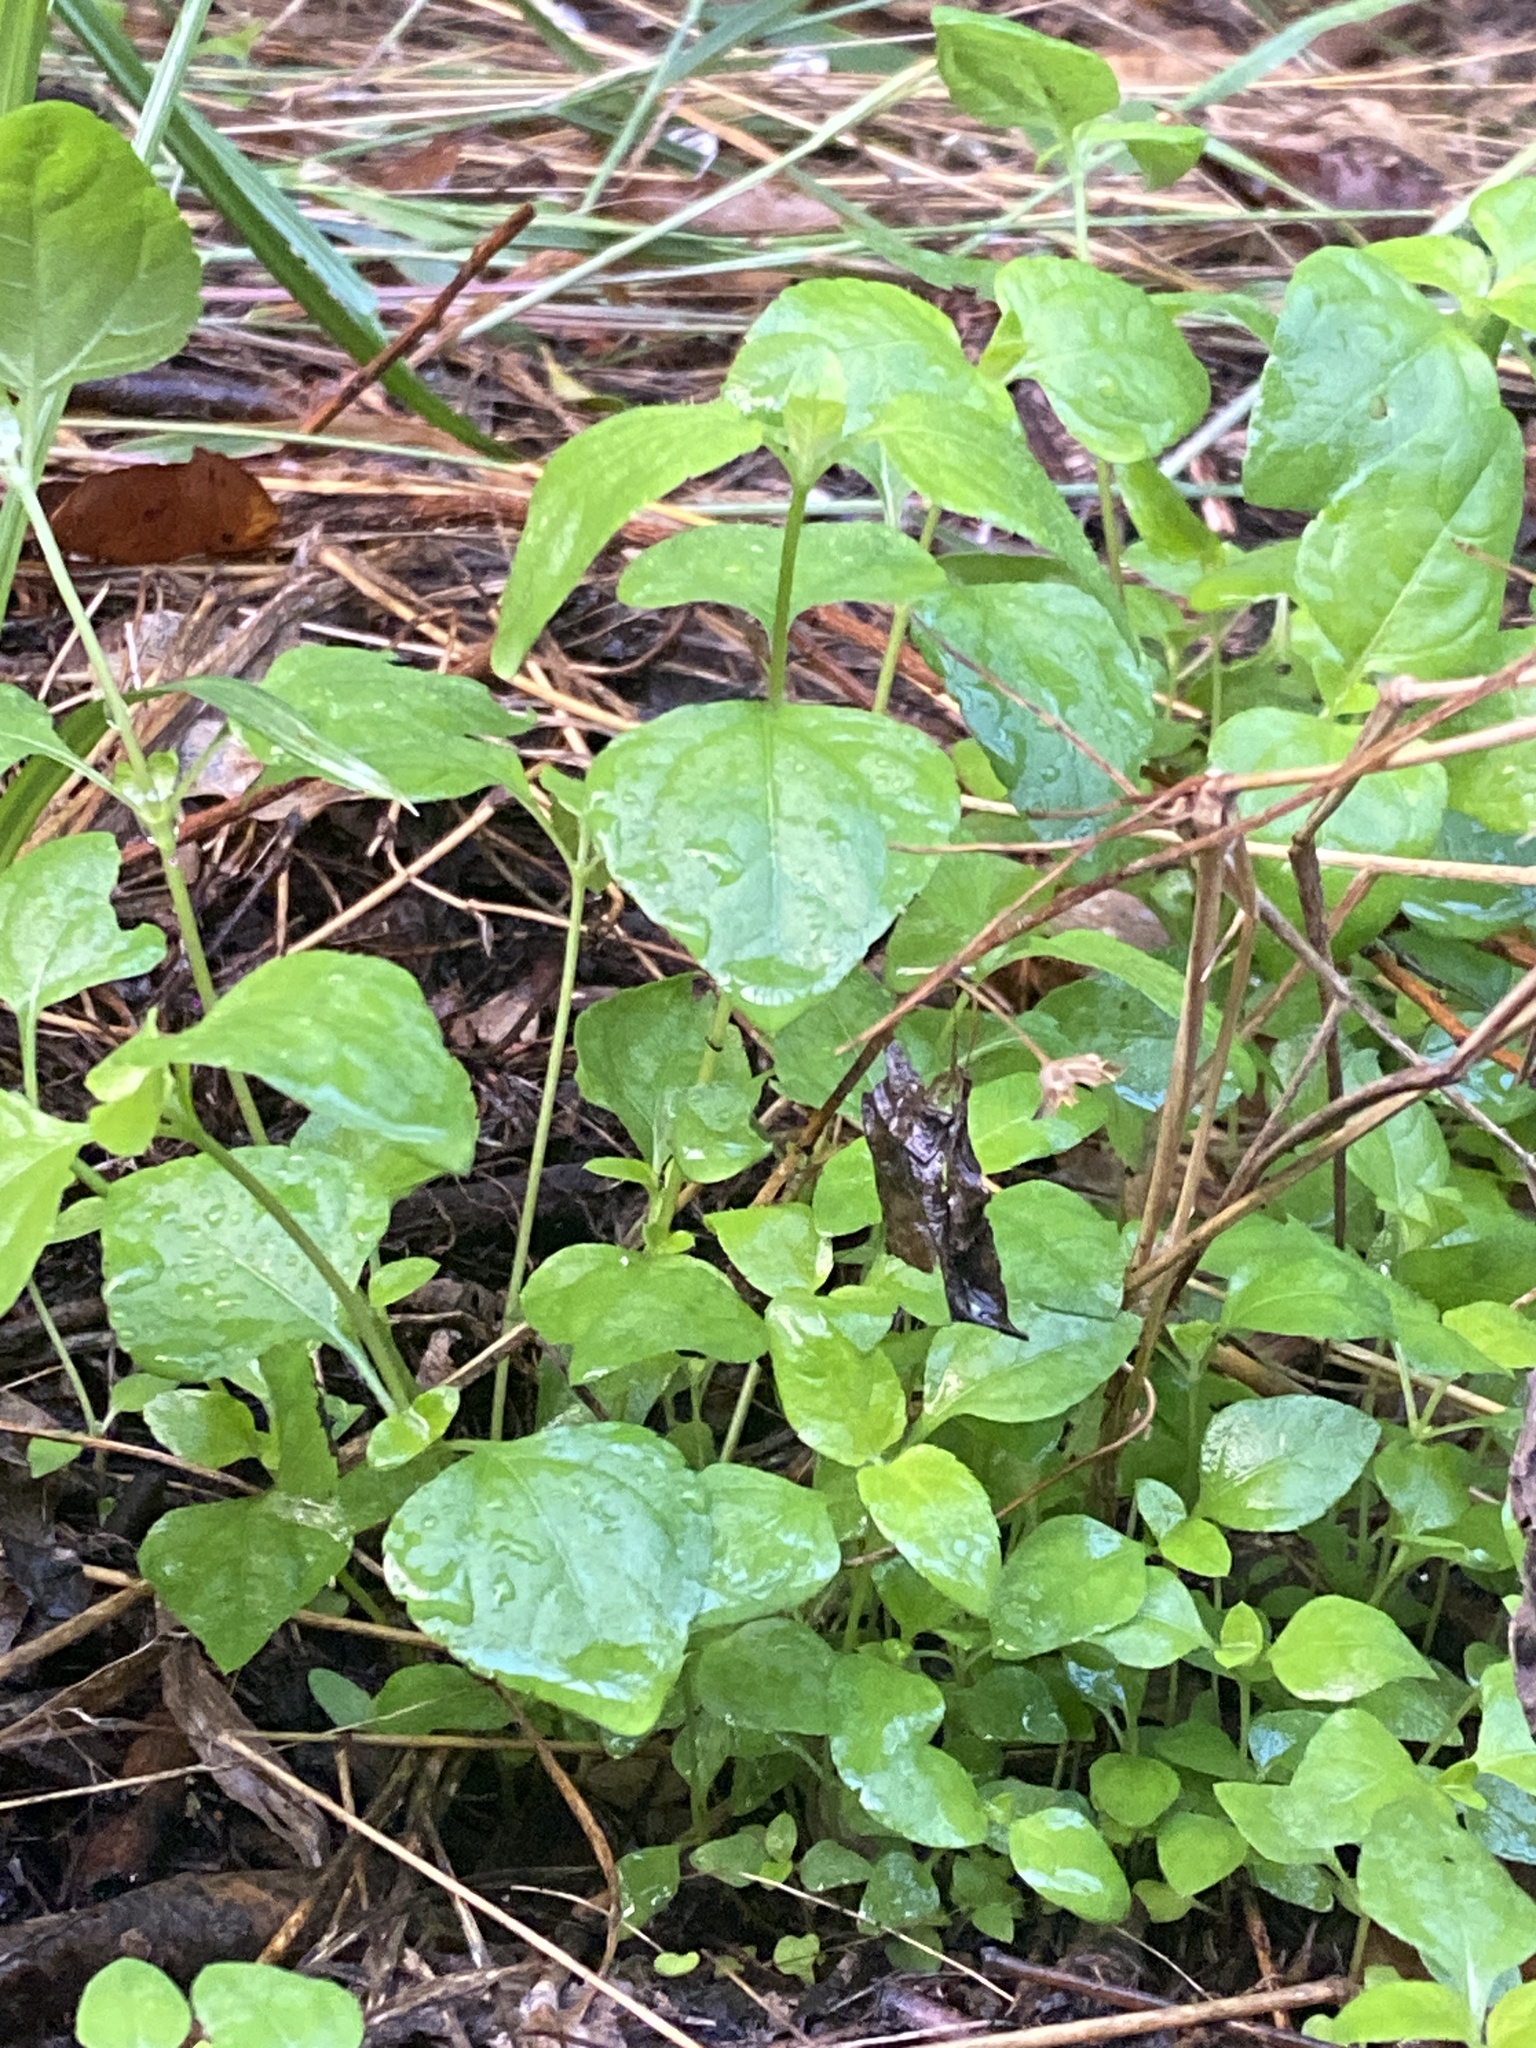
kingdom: Plantae
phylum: Tracheophyta
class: Magnoliopsida
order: Asterales
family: Asteraceae
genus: Calyptocarpus
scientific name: Calyptocarpus vialis
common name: Straggler daisy
